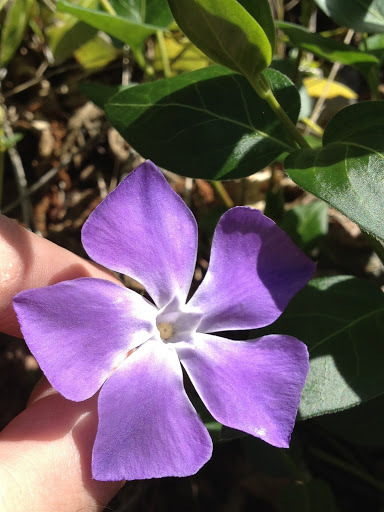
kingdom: Plantae
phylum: Tracheophyta
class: Magnoliopsida
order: Gentianales
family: Apocynaceae
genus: Vinca
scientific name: Vinca major
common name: Greater periwinkle
